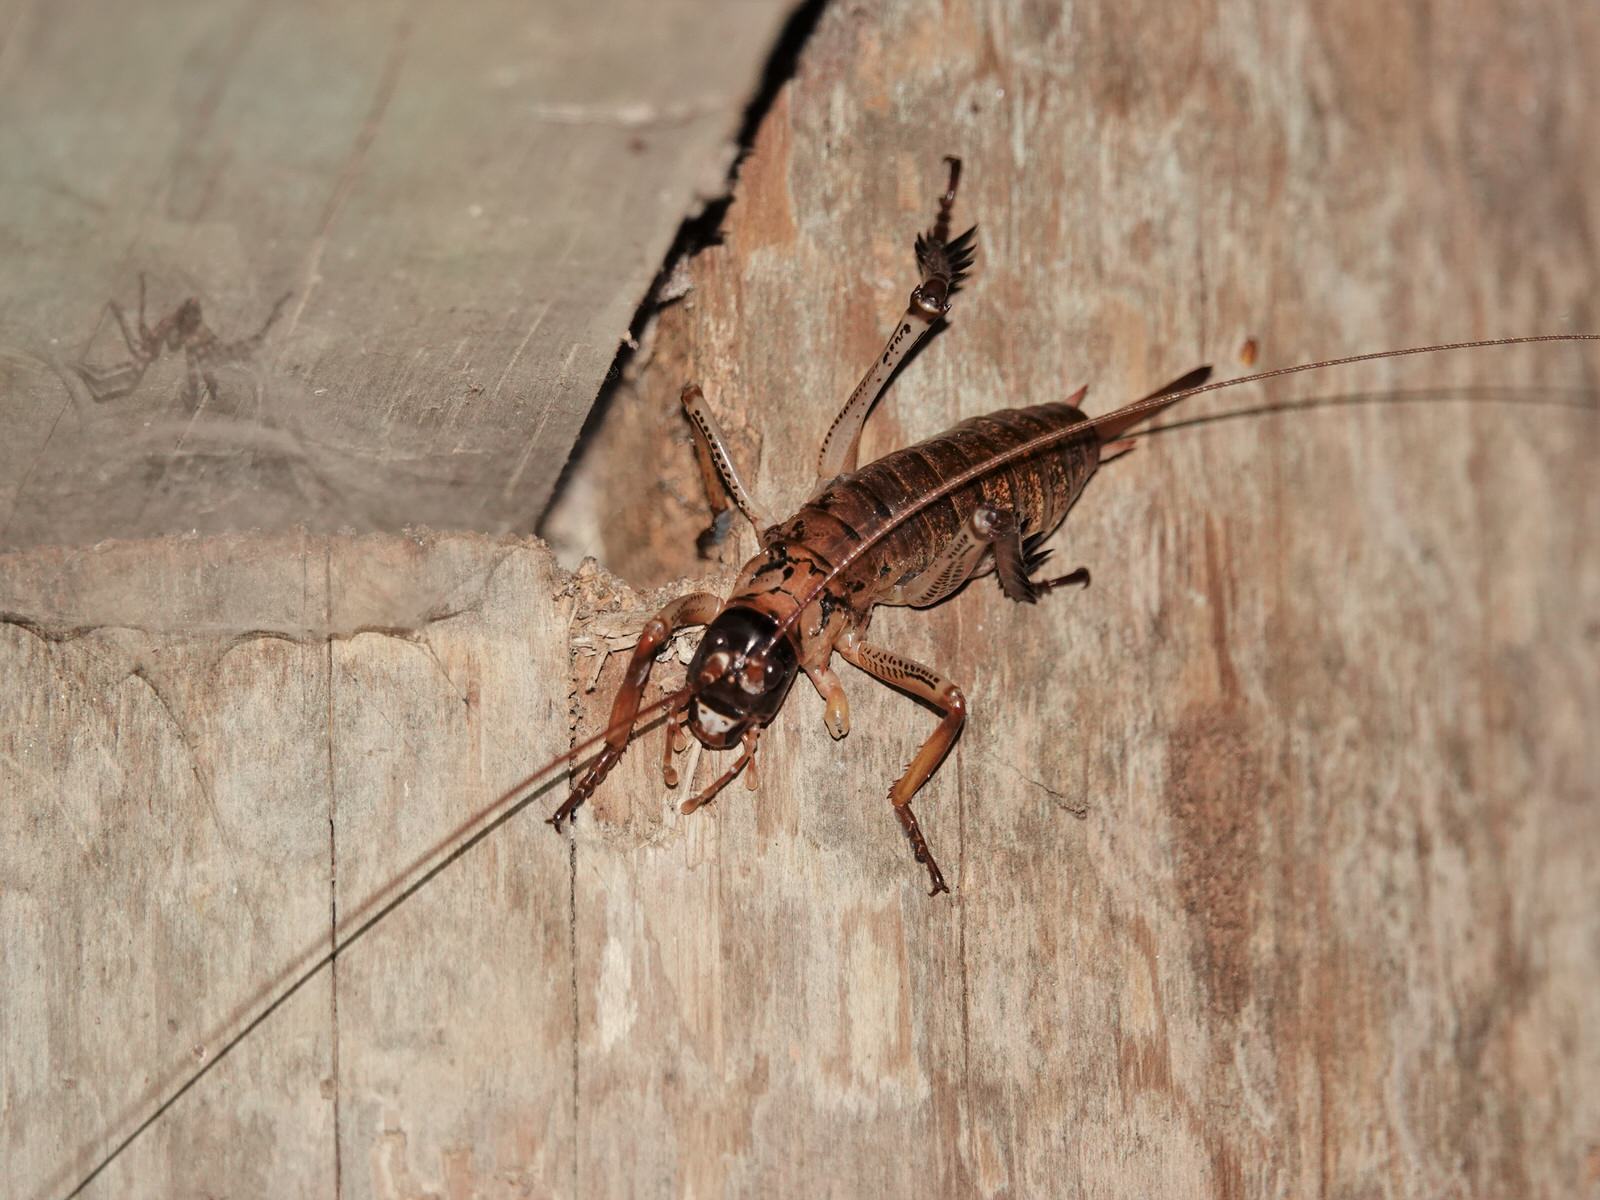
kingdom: Animalia
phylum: Arthropoda
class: Insecta
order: Orthoptera
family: Anostostomatidae
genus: Hemideina
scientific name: Hemideina thoracica
